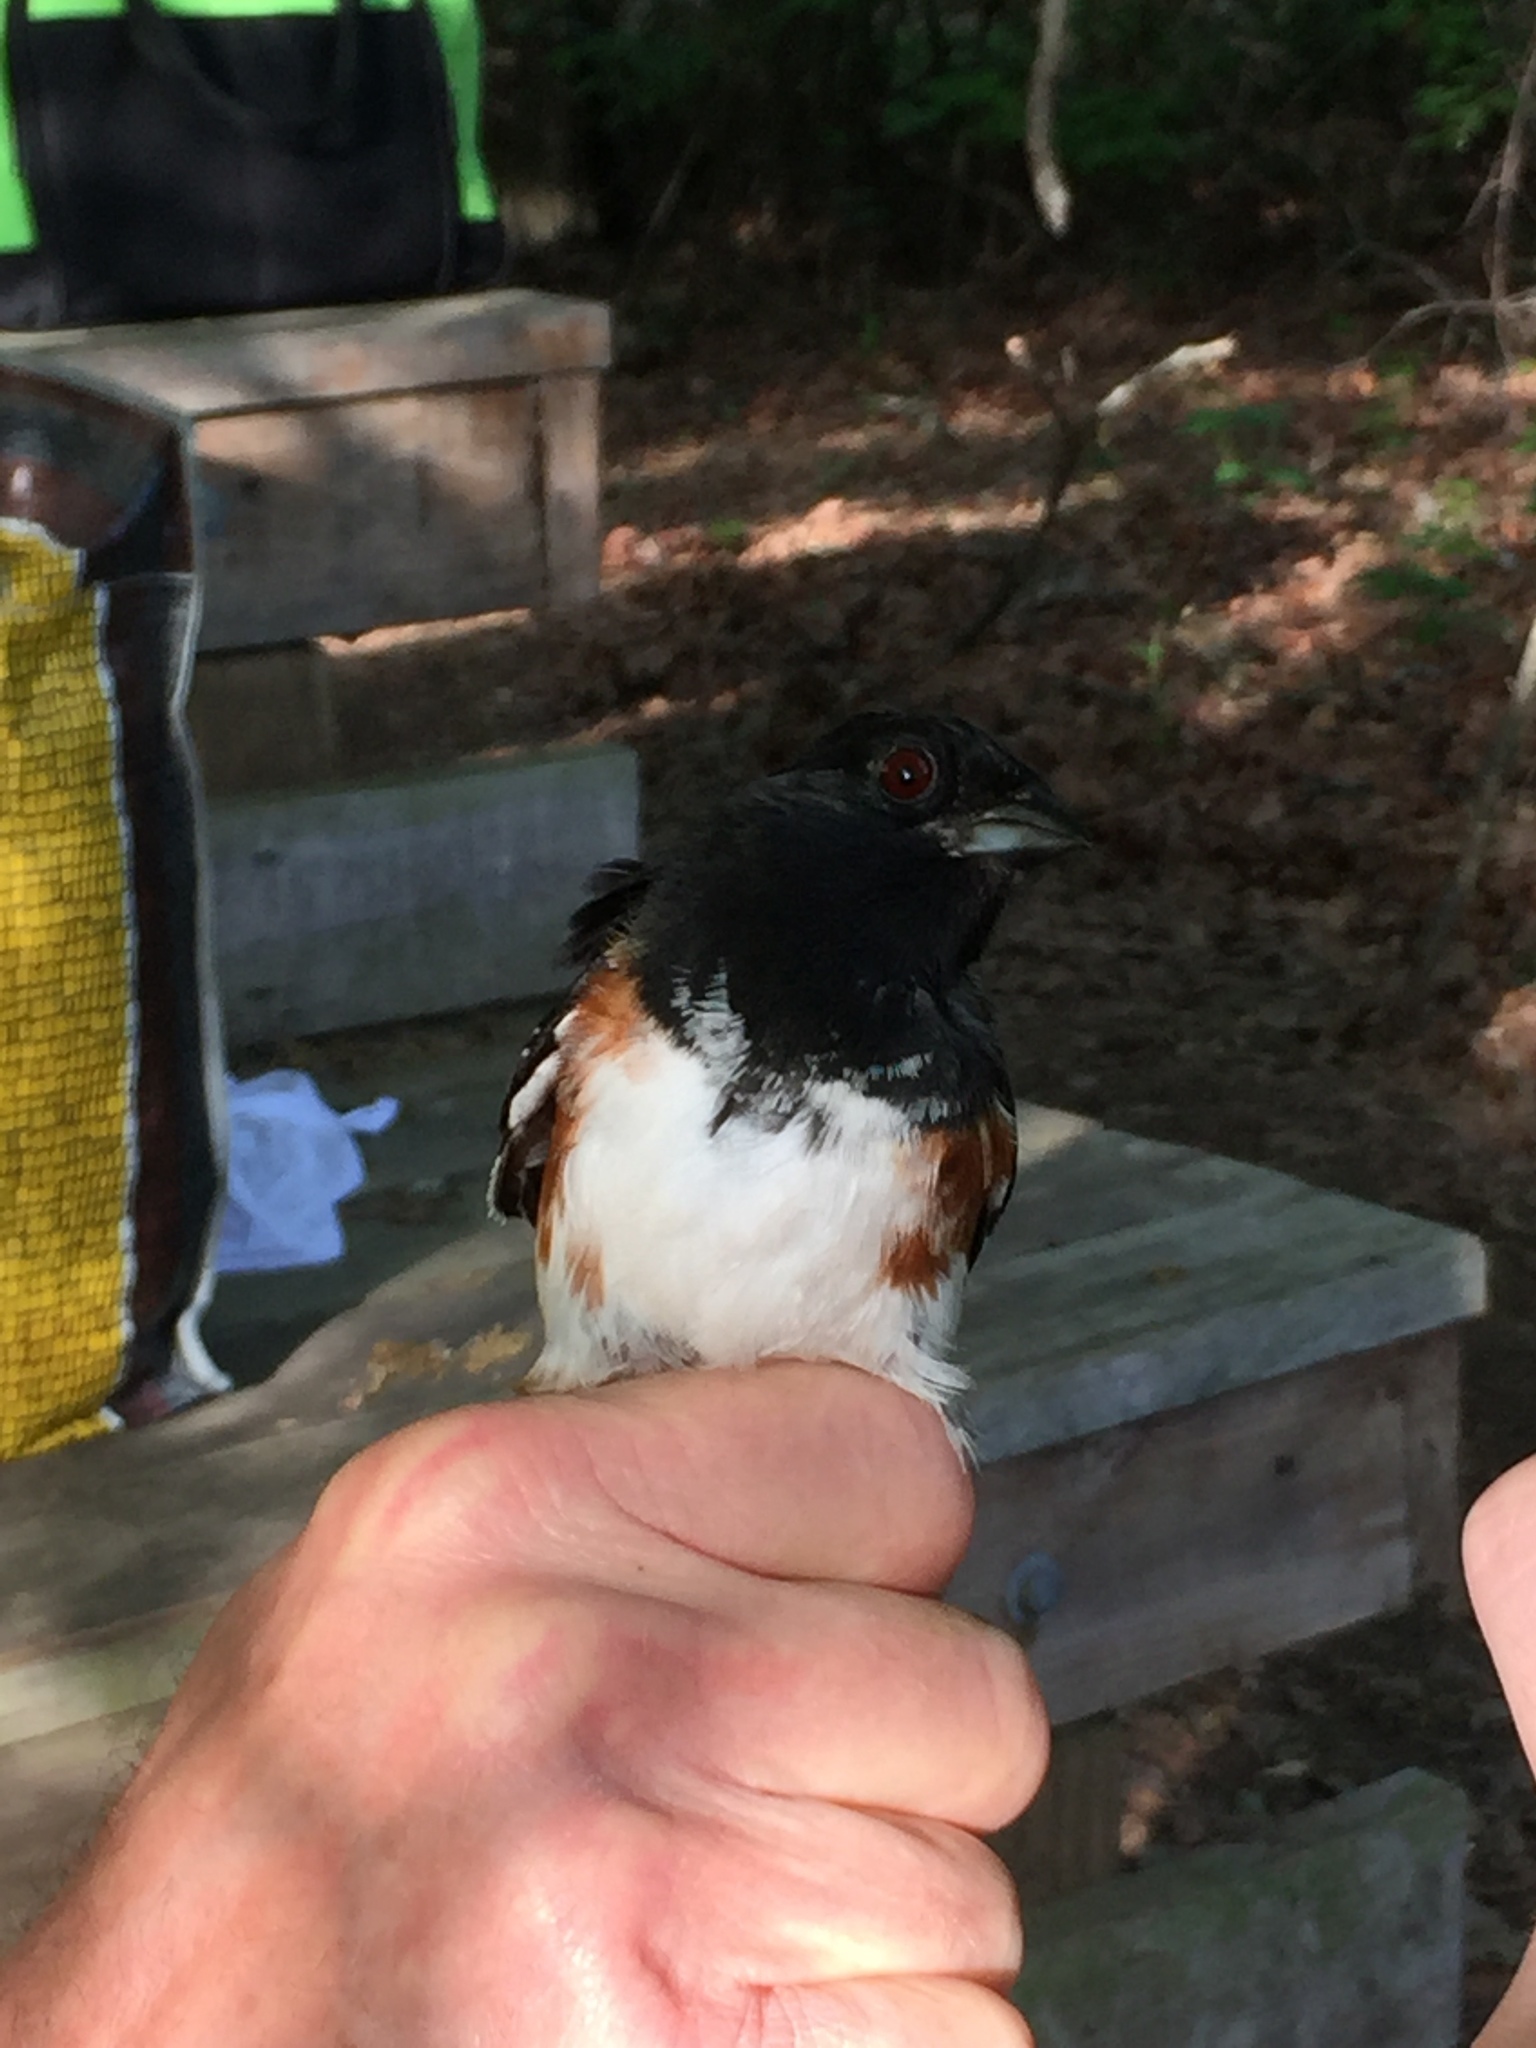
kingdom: Animalia
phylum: Chordata
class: Aves
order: Passeriformes
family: Passerellidae
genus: Pipilo
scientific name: Pipilo erythrophthalmus
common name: Eastern towhee
